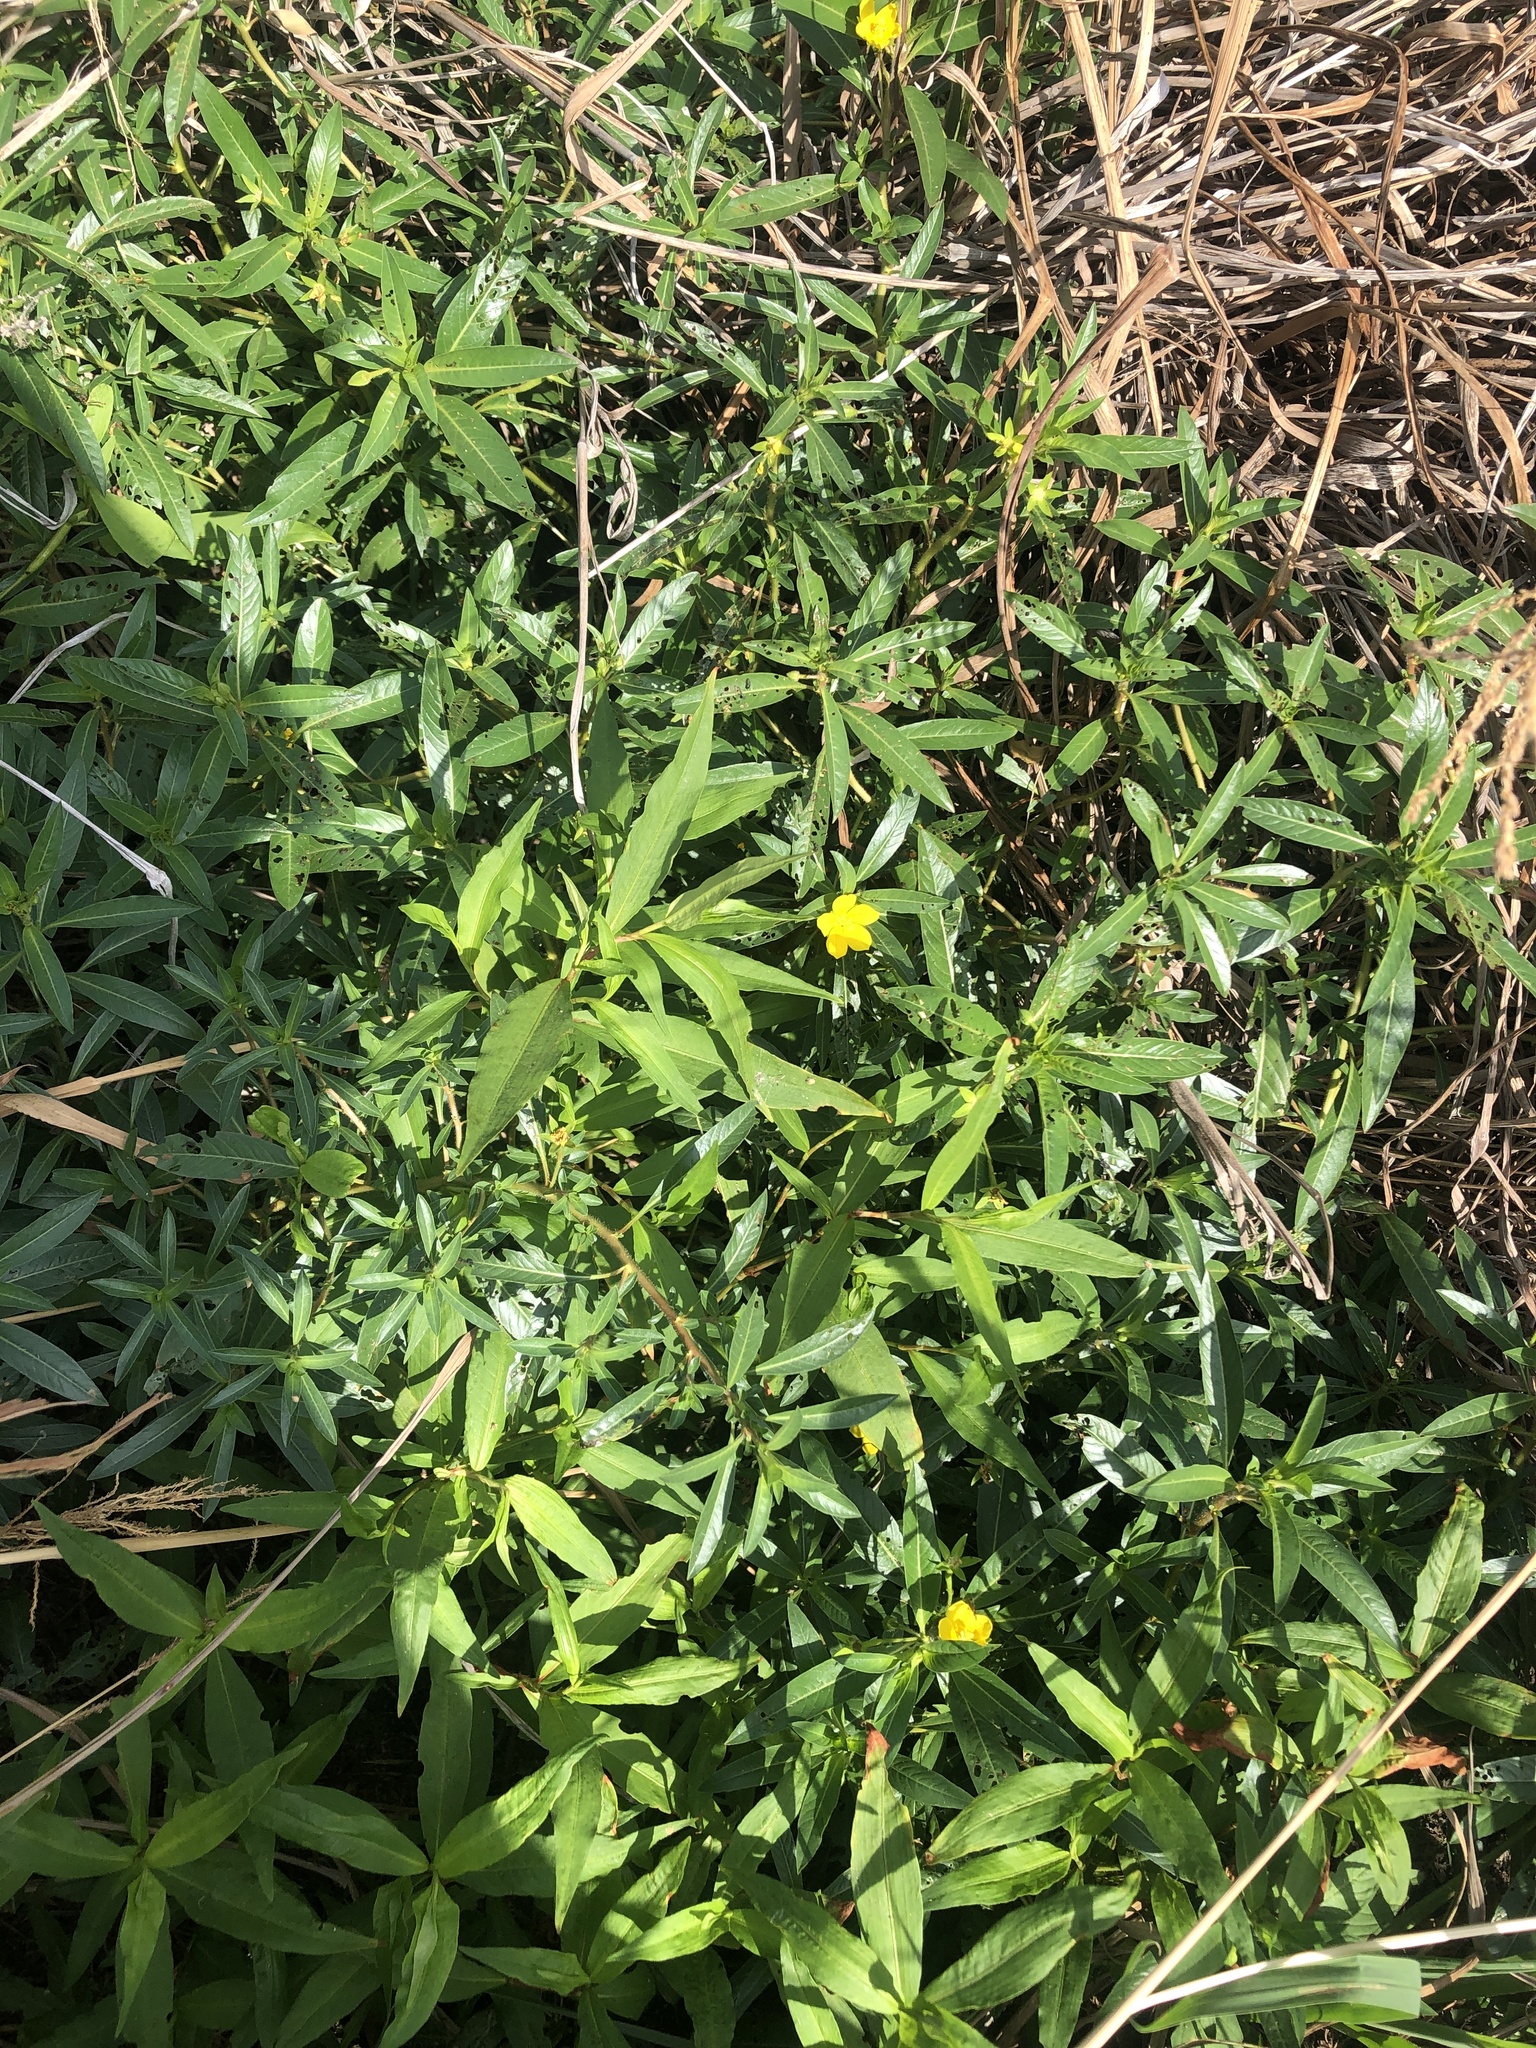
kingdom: Plantae
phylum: Tracheophyta
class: Magnoliopsida
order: Myrtales
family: Onagraceae
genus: Ludwigia
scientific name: Ludwigia peploides
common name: Floating primrose-willow
